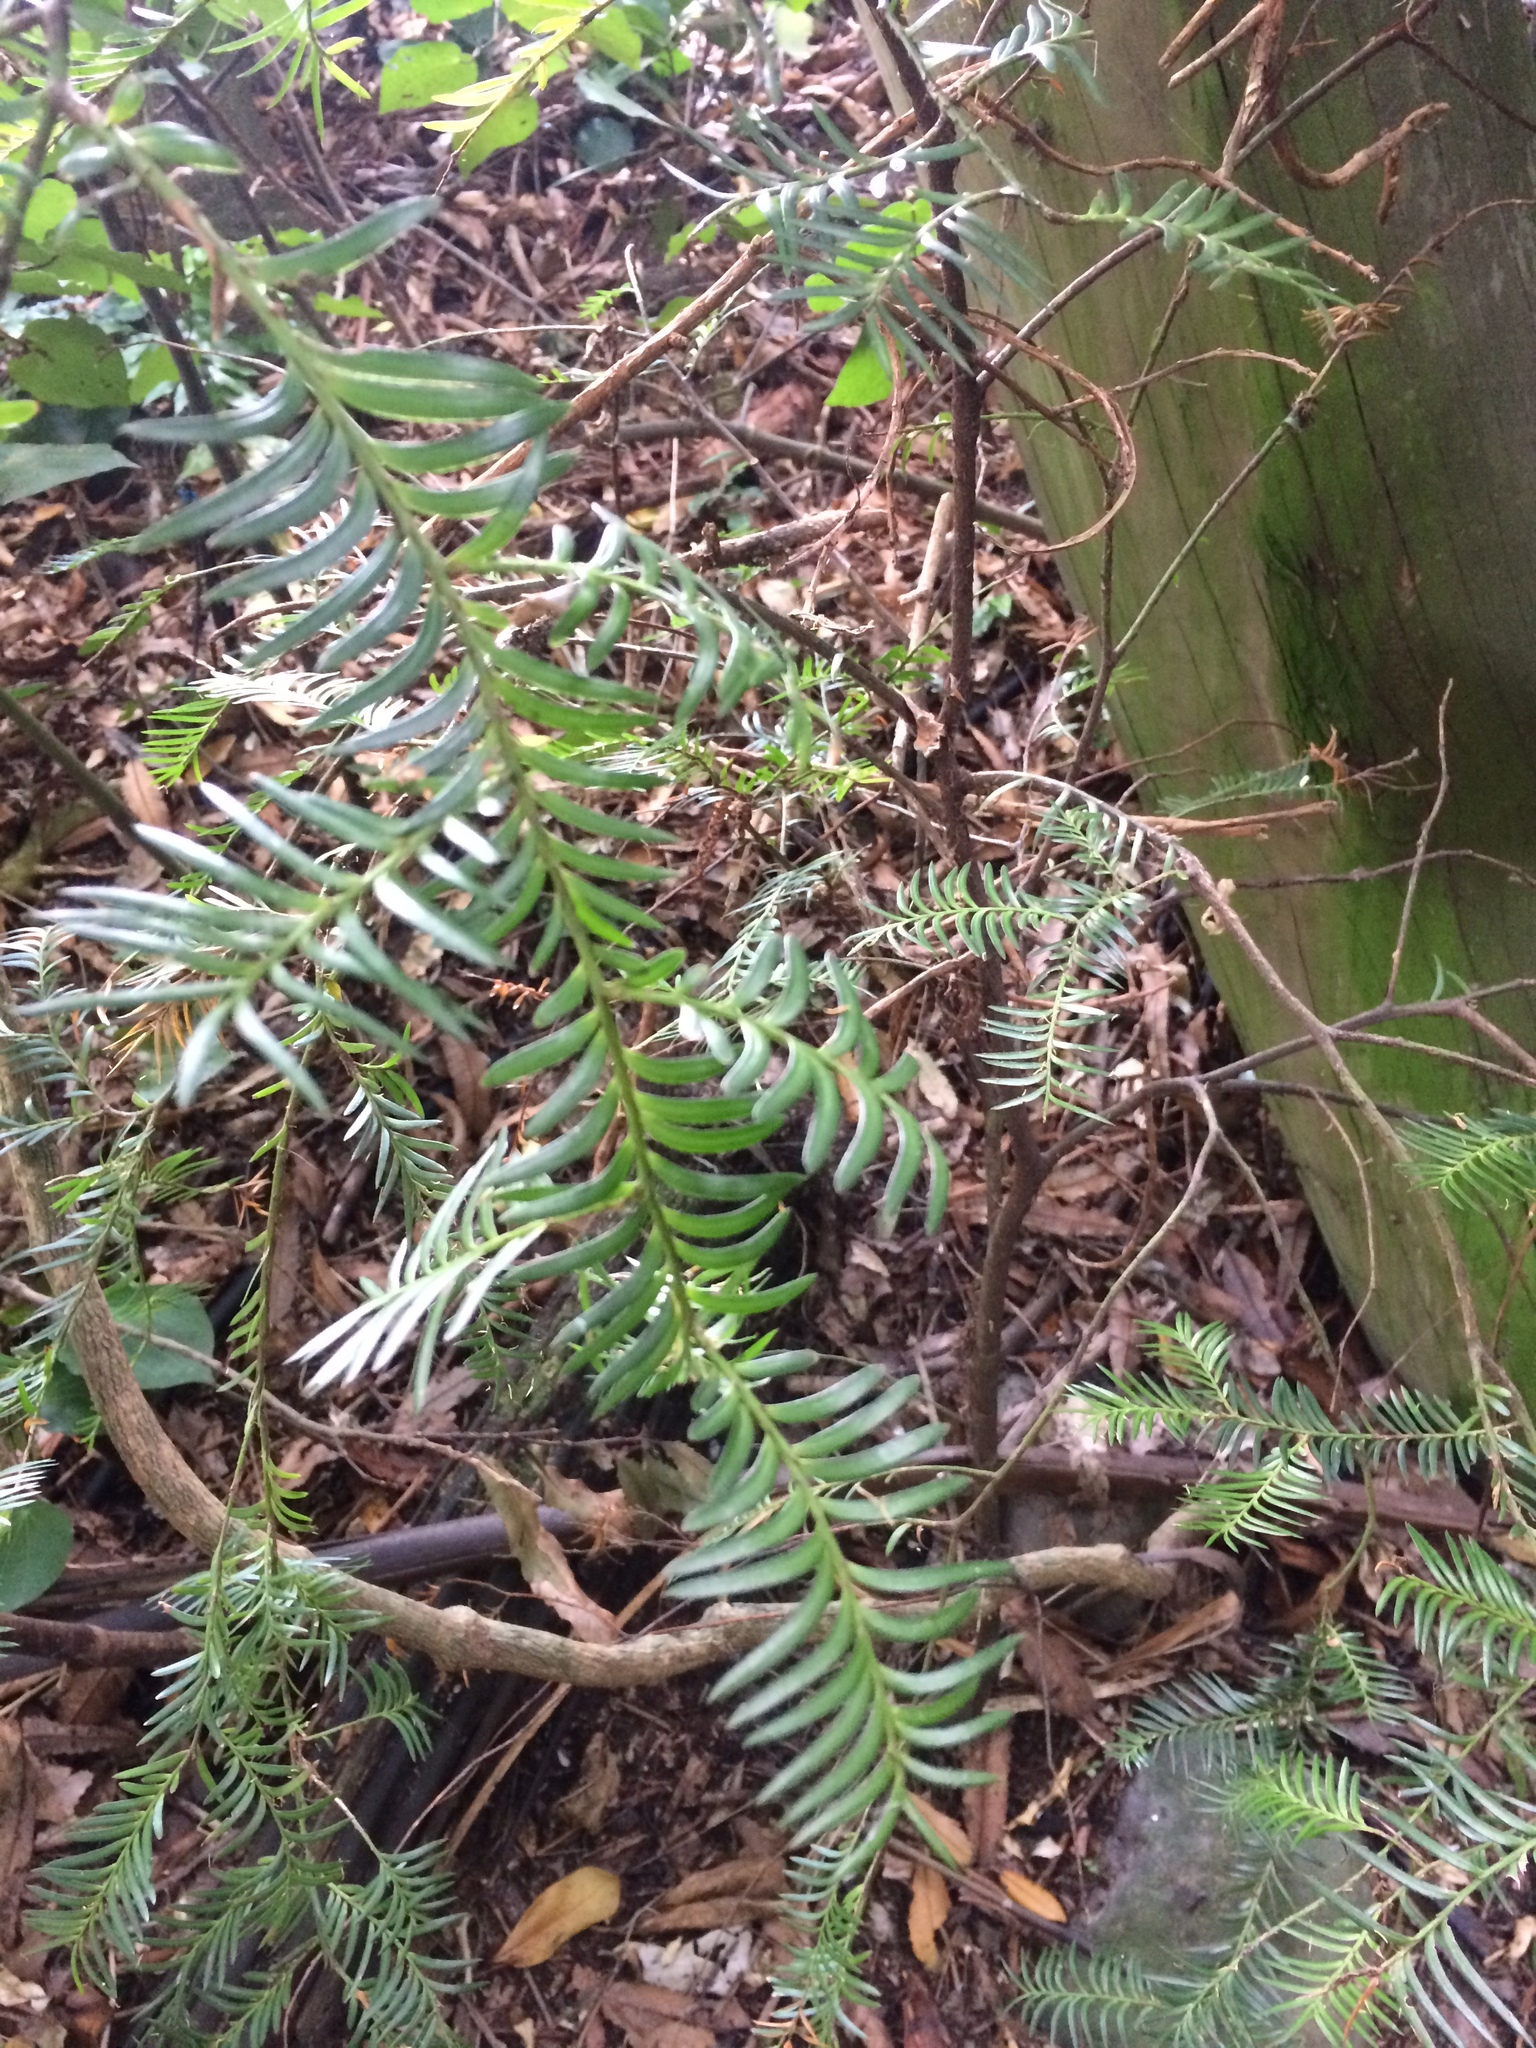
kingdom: Plantae
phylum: Tracheophyta
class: Pinopsida
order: Pinales
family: Podocarpaceae
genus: Prumnopitys
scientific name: Prumnopitys ferruginea
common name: Brown pine
